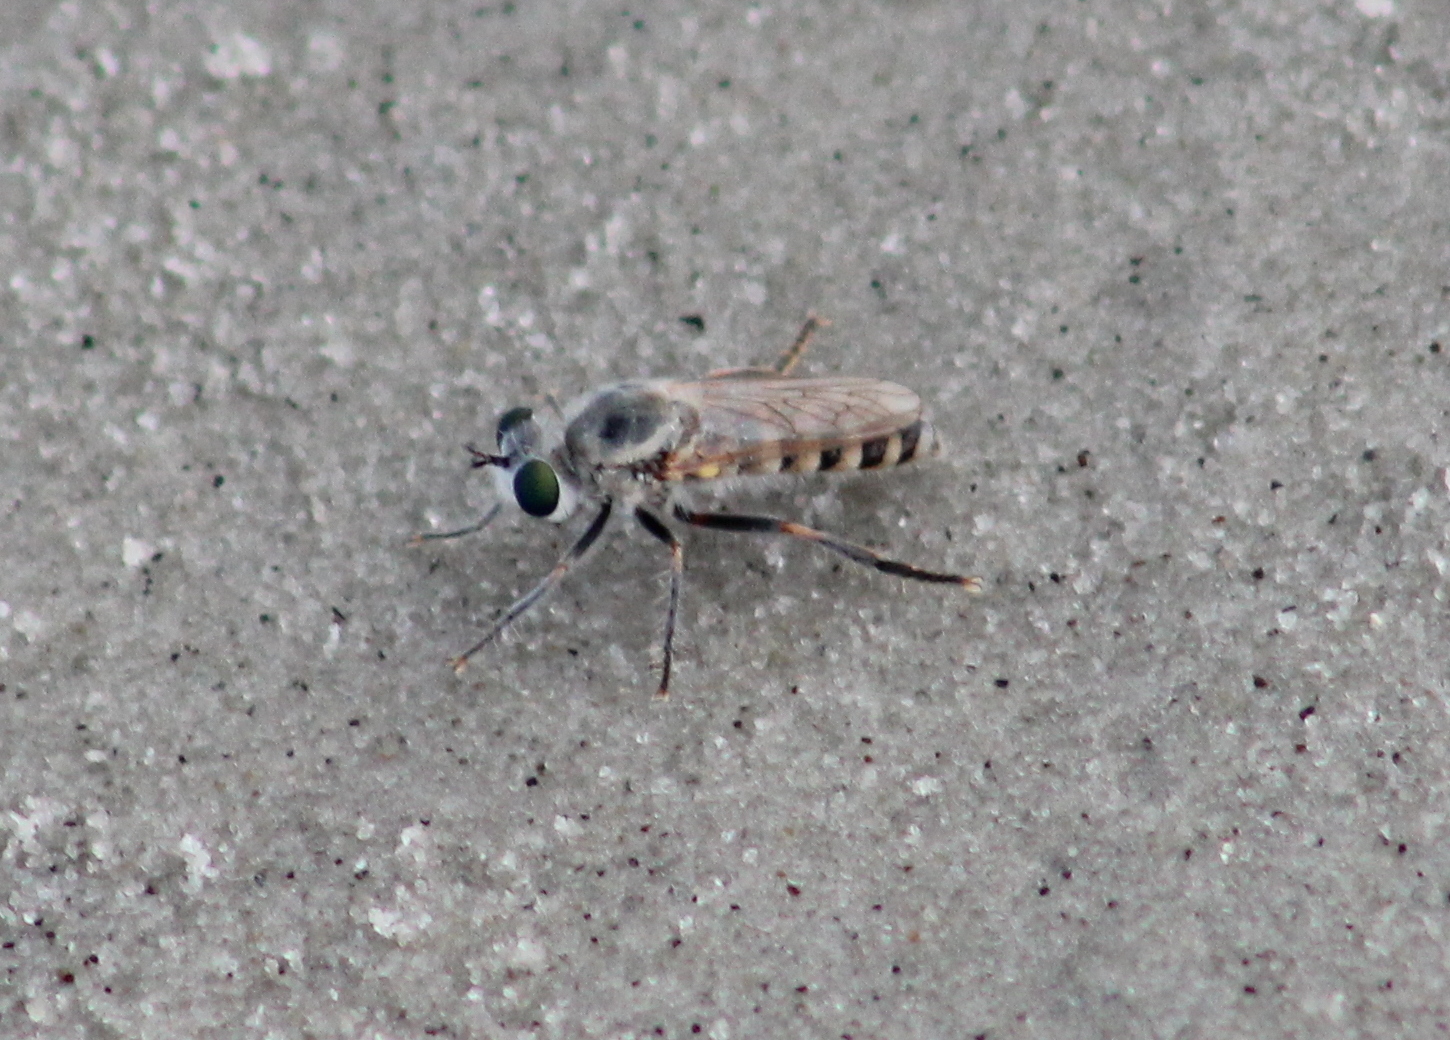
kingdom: Animalia
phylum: Arthropoda
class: Insecta
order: Diptera
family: Asilidae
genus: Laphystia
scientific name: Laphystia litoralis
